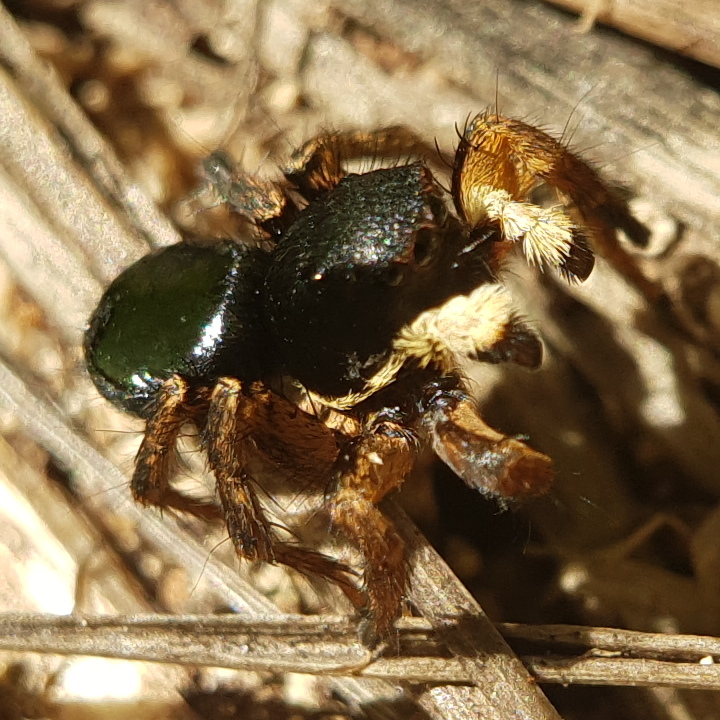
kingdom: Animalia
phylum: Arthropoda
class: Arachnida
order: Araneae
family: Salticidae
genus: Asianellus
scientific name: Asianellus festivus
